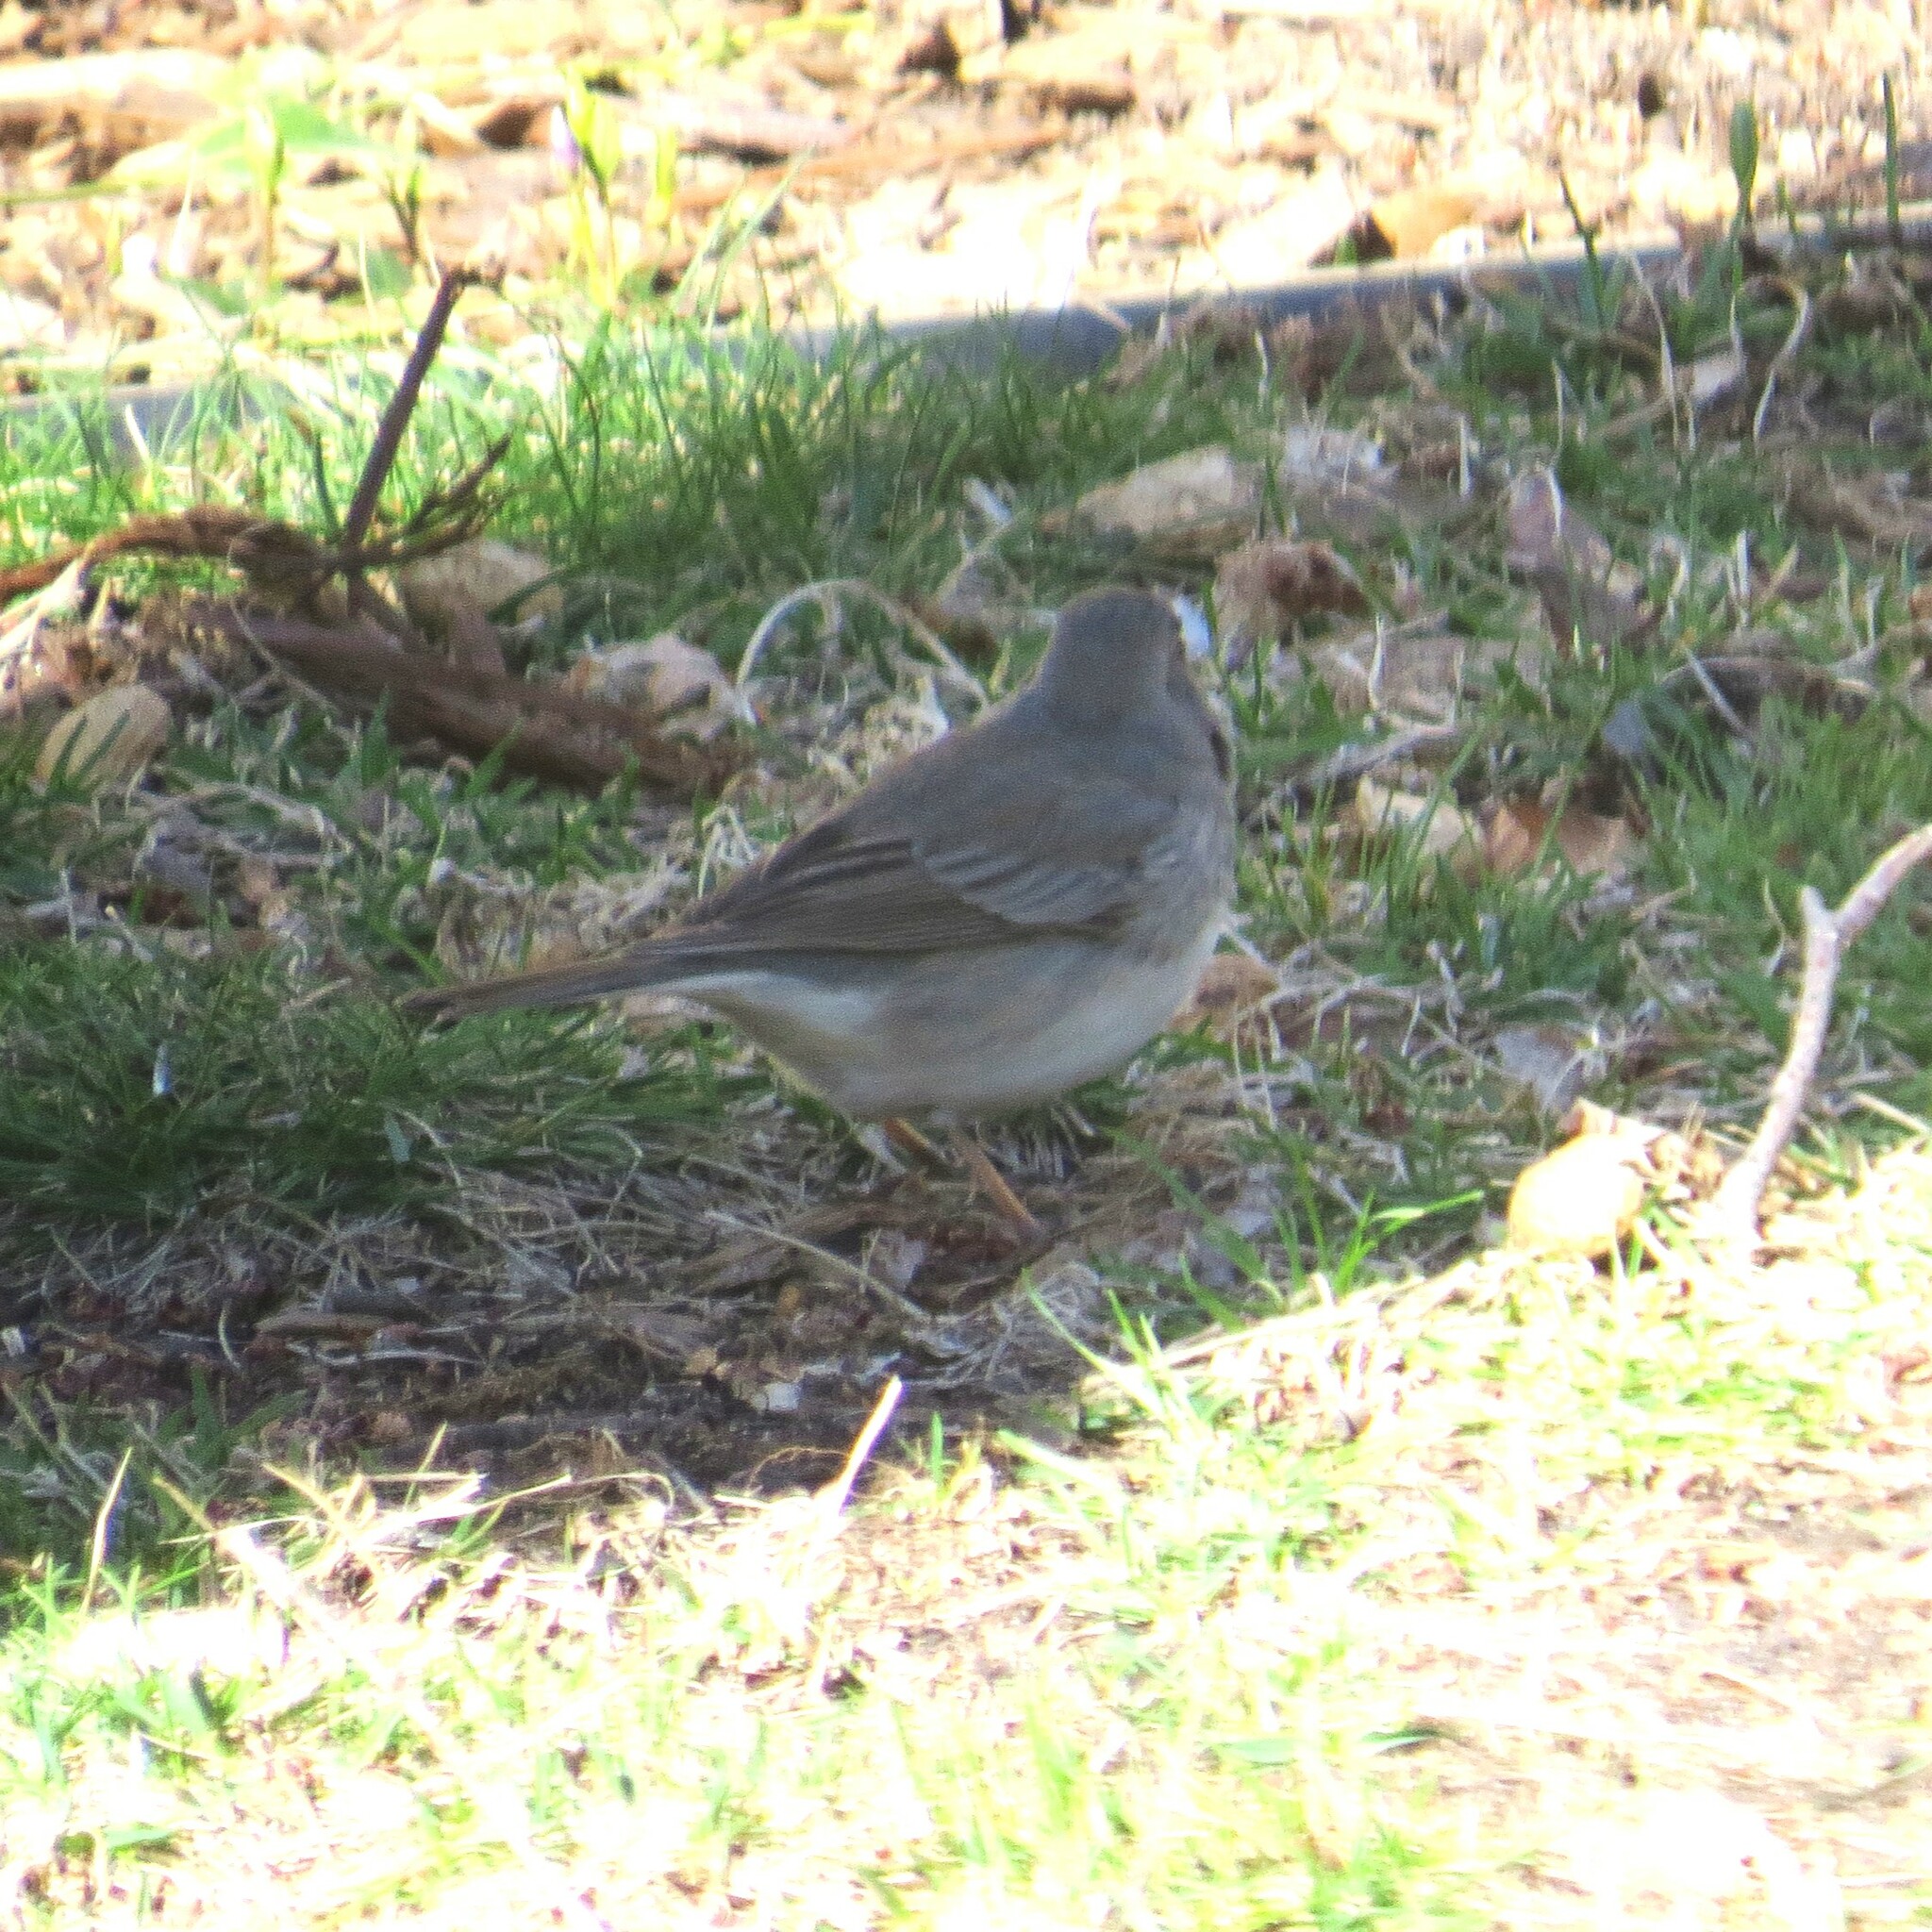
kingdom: Animalia
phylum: Chordata
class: Aves
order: Passeriformes
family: Passerellidae
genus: Junco
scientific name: Junco hyemalis
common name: Dark-eyed junco
